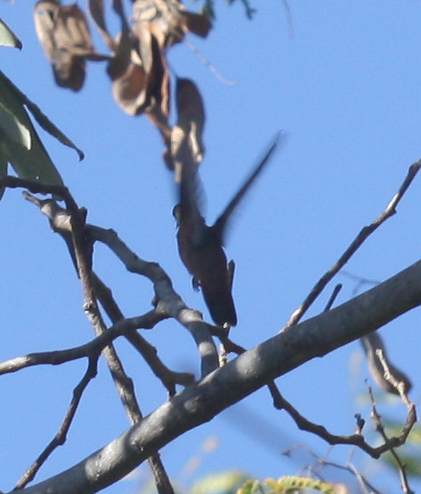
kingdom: Animalia
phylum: Chordata
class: Aves
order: Apodiformes
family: Trochilidae
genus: Amazilia
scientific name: Amazilia rutila
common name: Cinnamon hummingbird
